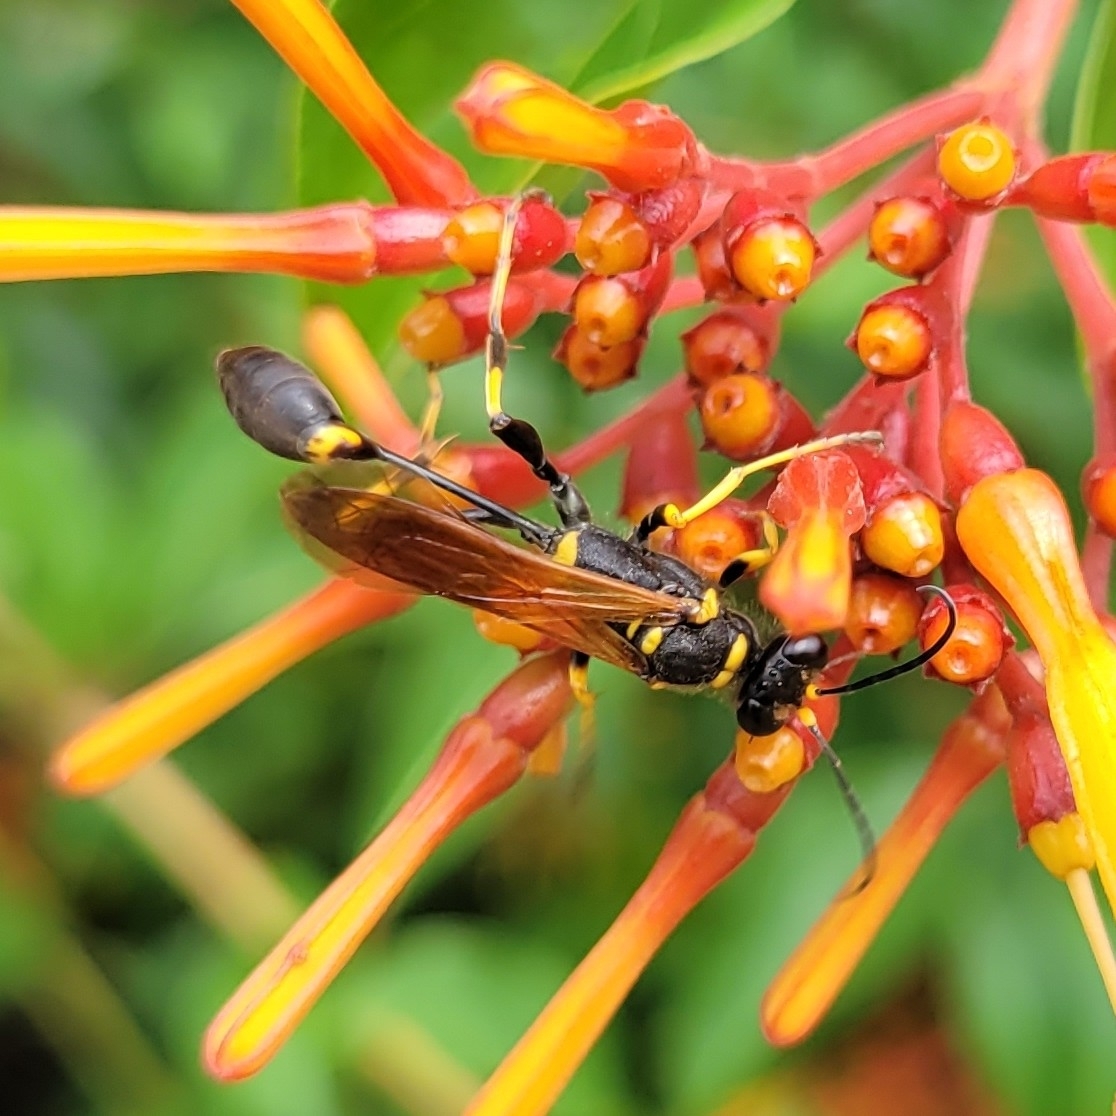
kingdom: Animalia
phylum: Arthropoda
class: Insecta
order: Hymenoptera
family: Sphecidae
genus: Sceliphron
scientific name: Sceliphron caementarium
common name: Mud dauber
